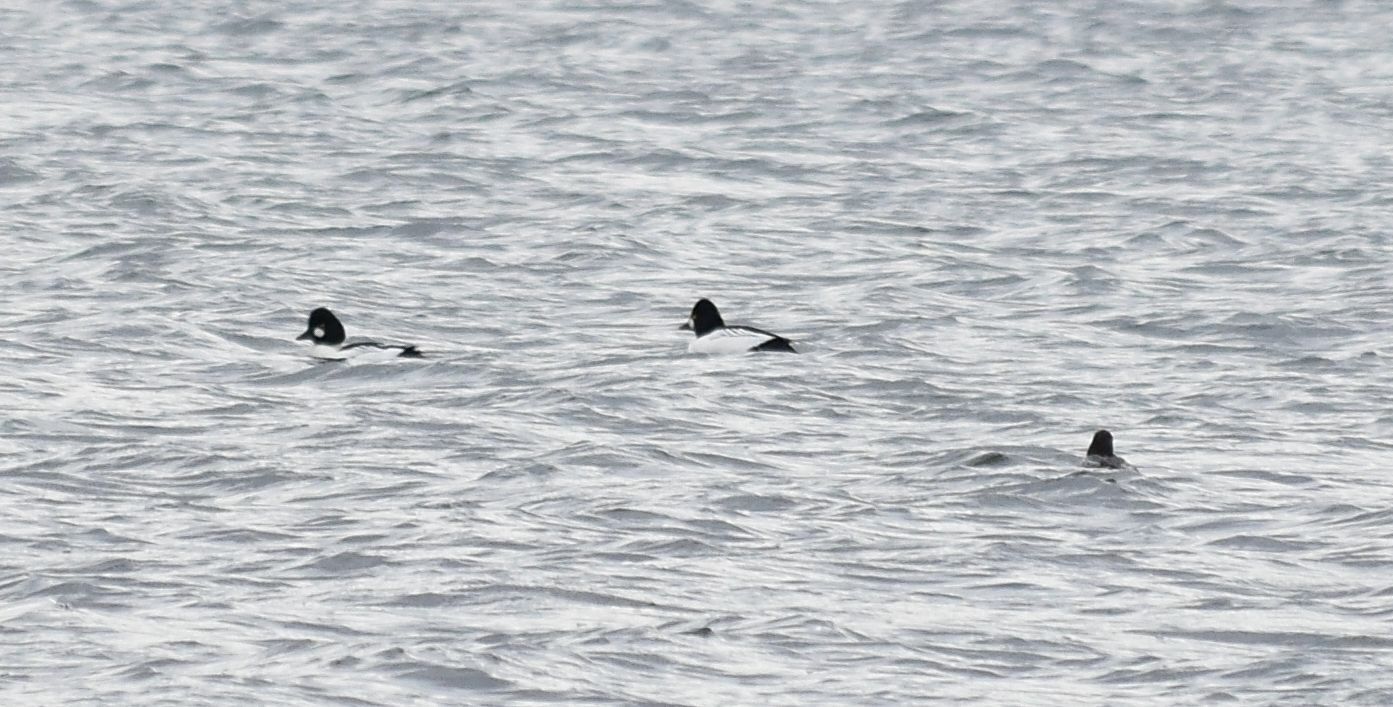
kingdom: Animalia
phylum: Chordata
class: Aves
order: Anseriformes
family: Anatidae
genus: Bucephala
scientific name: Bucephala clangula
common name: Common goldeneye
